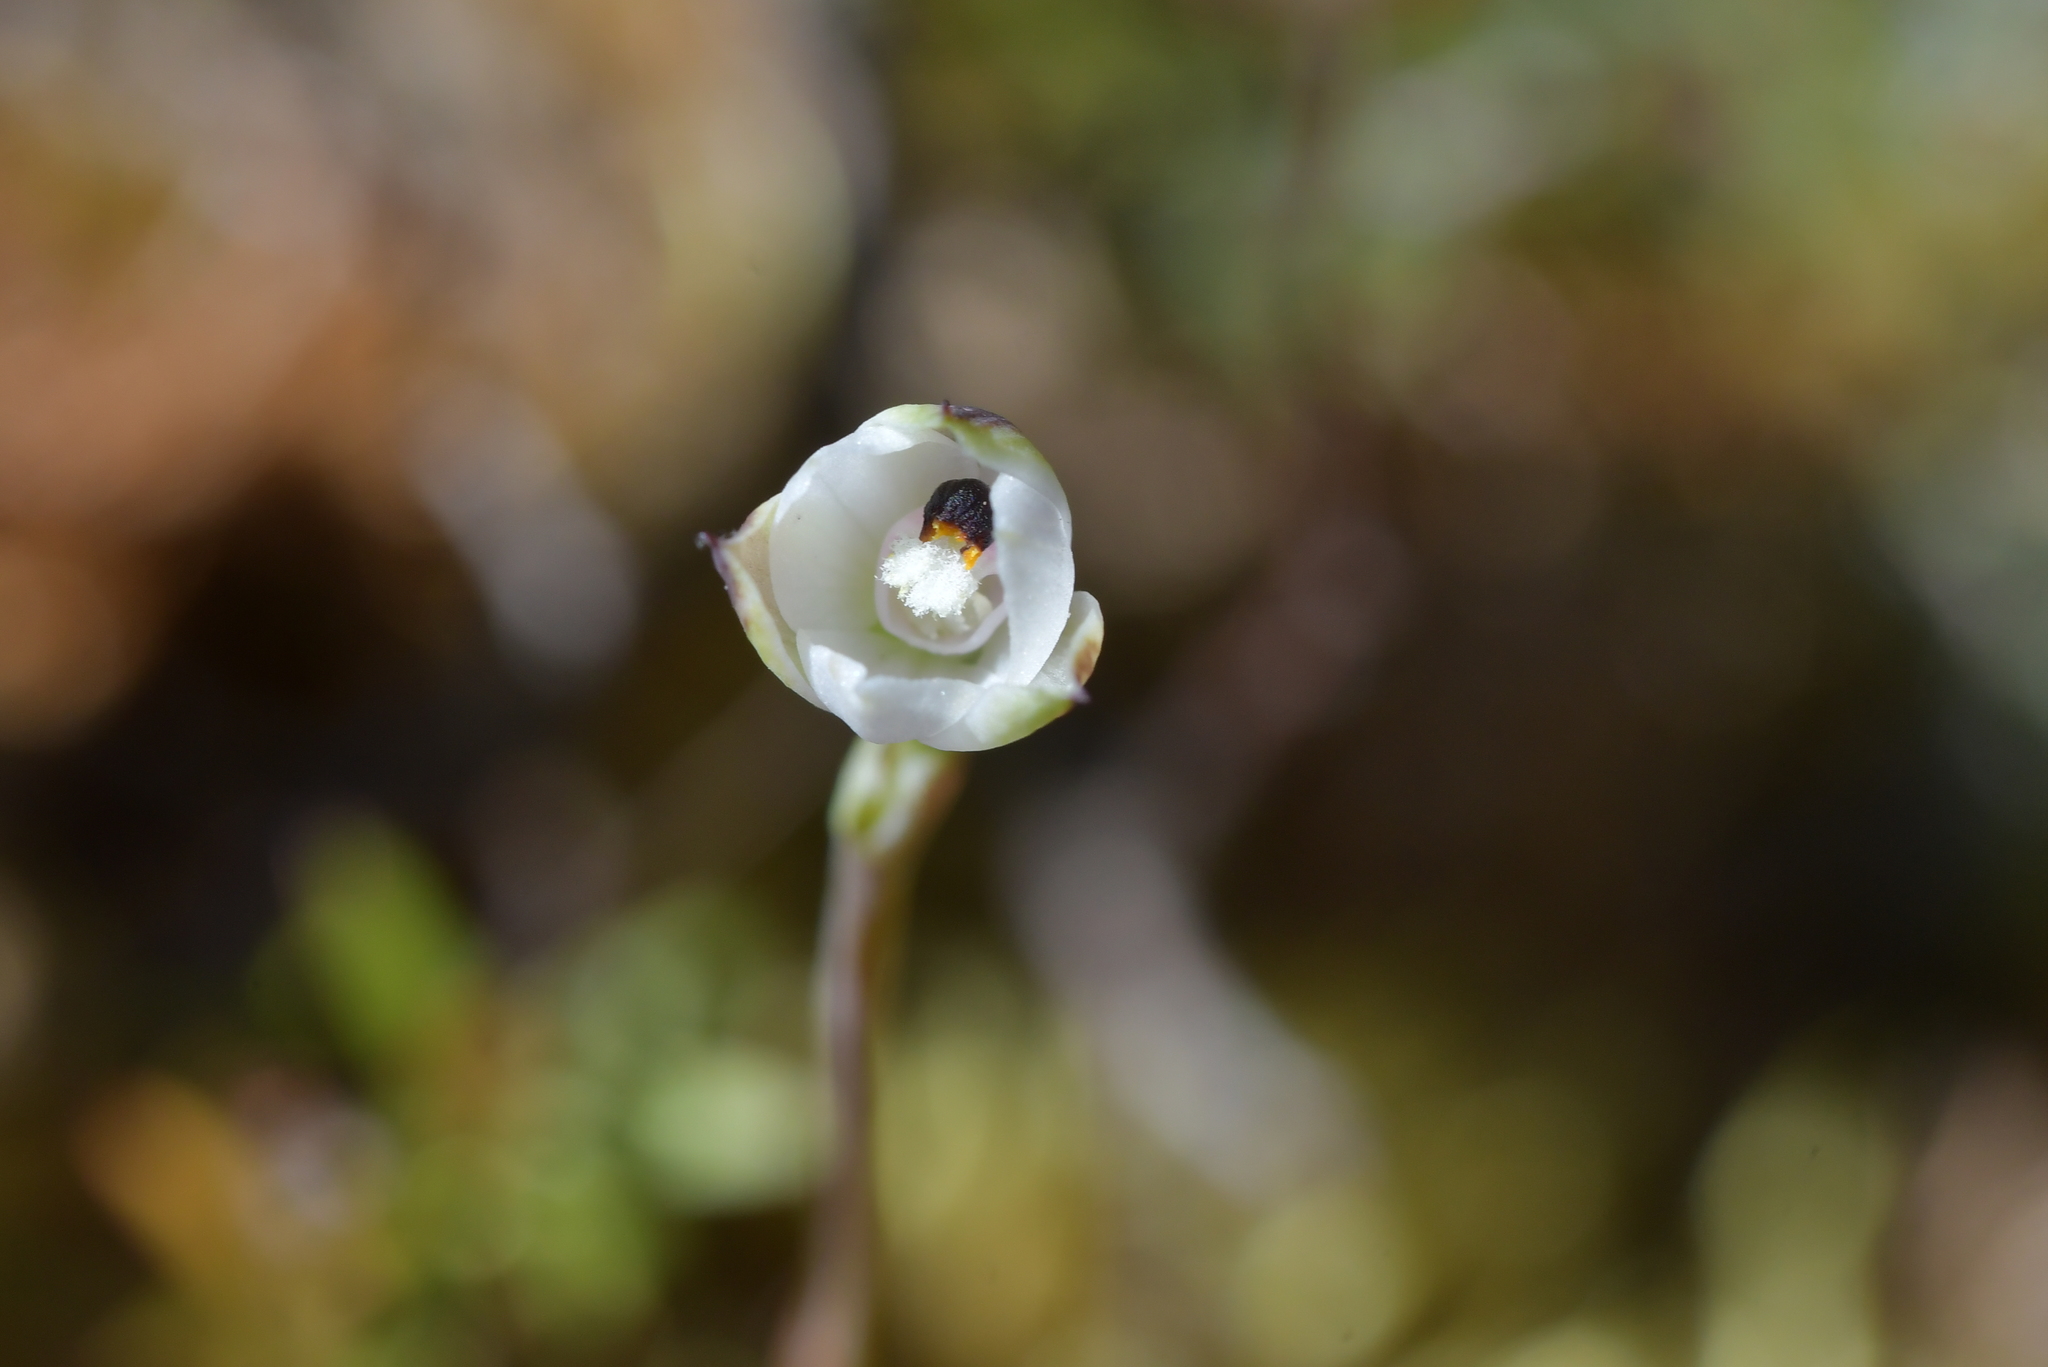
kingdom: Plantae
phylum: Tracheophyta
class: Liliopsida
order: Asparagales
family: Orchidaceae
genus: Thelymitra
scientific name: Thelymitra longifolia
